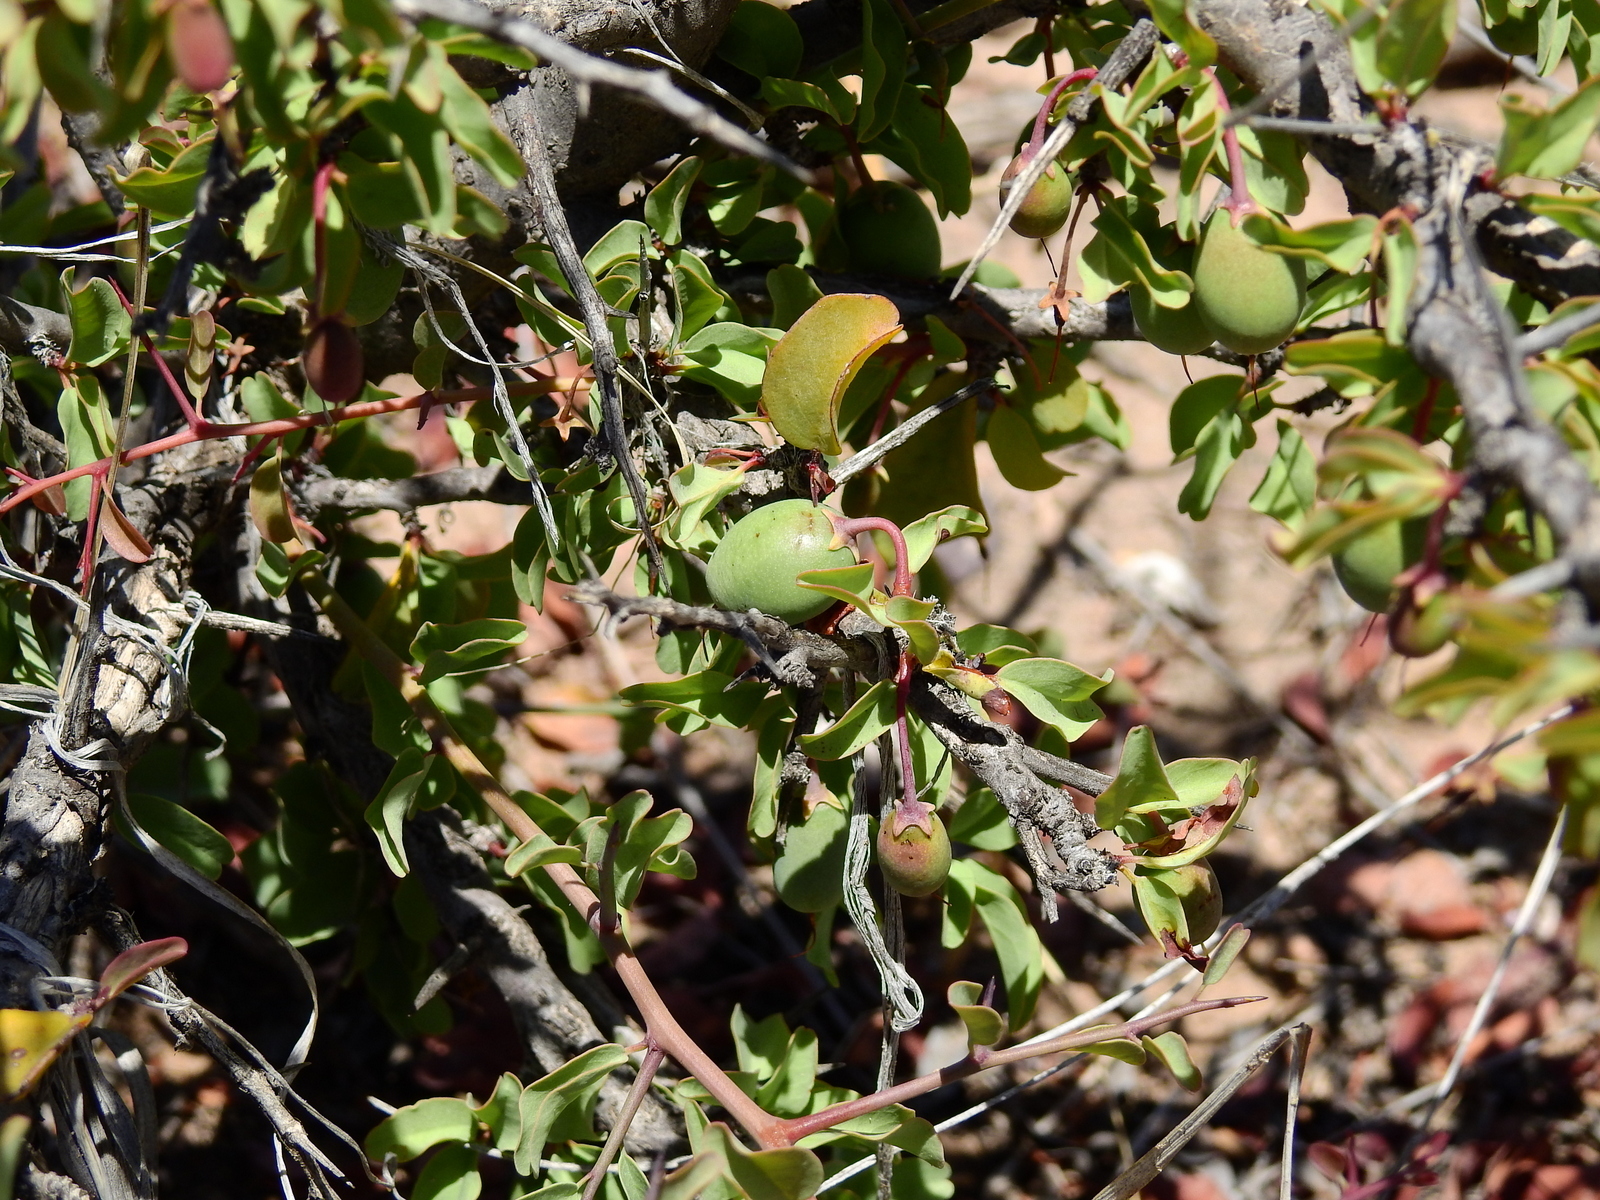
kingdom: Plantae
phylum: Tracheophyta
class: Magnoliopsida
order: Santalales
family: Ximeniaceae
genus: Ximenia
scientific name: Ximenia americana
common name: Tallowwood
